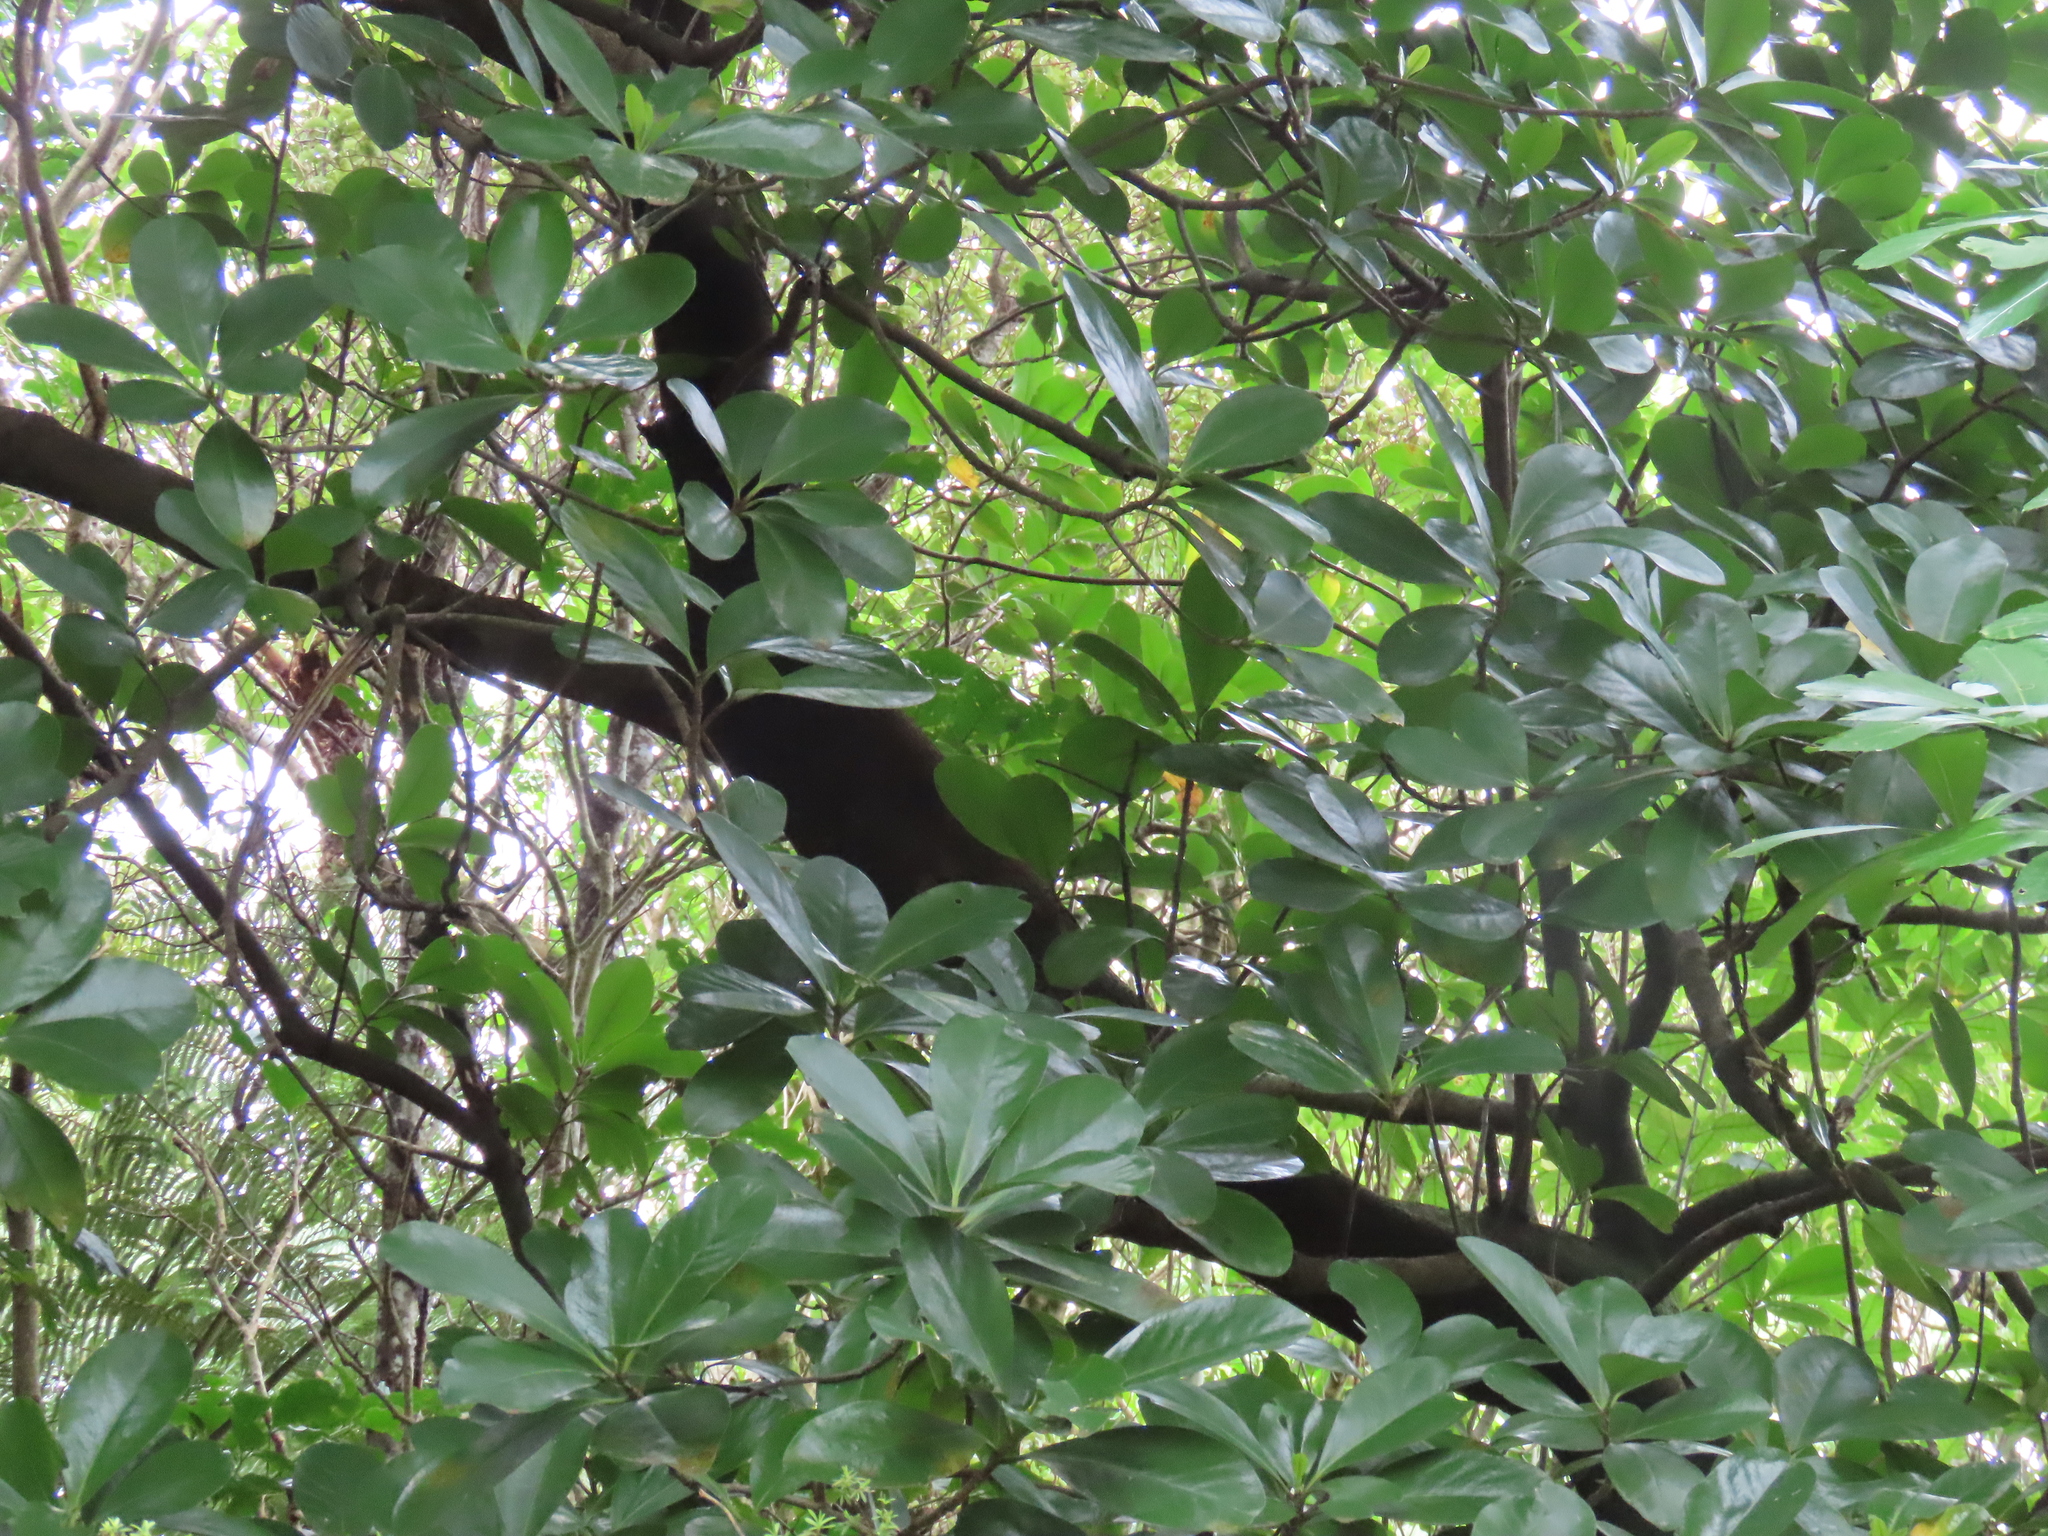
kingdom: Plantae
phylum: Tracheophyta
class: Magnoliopsida
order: Cucurbitales
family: Corynocarpaceae
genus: Corynocarpus
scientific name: Corynocarpus laevigatus
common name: New zealand laurel
